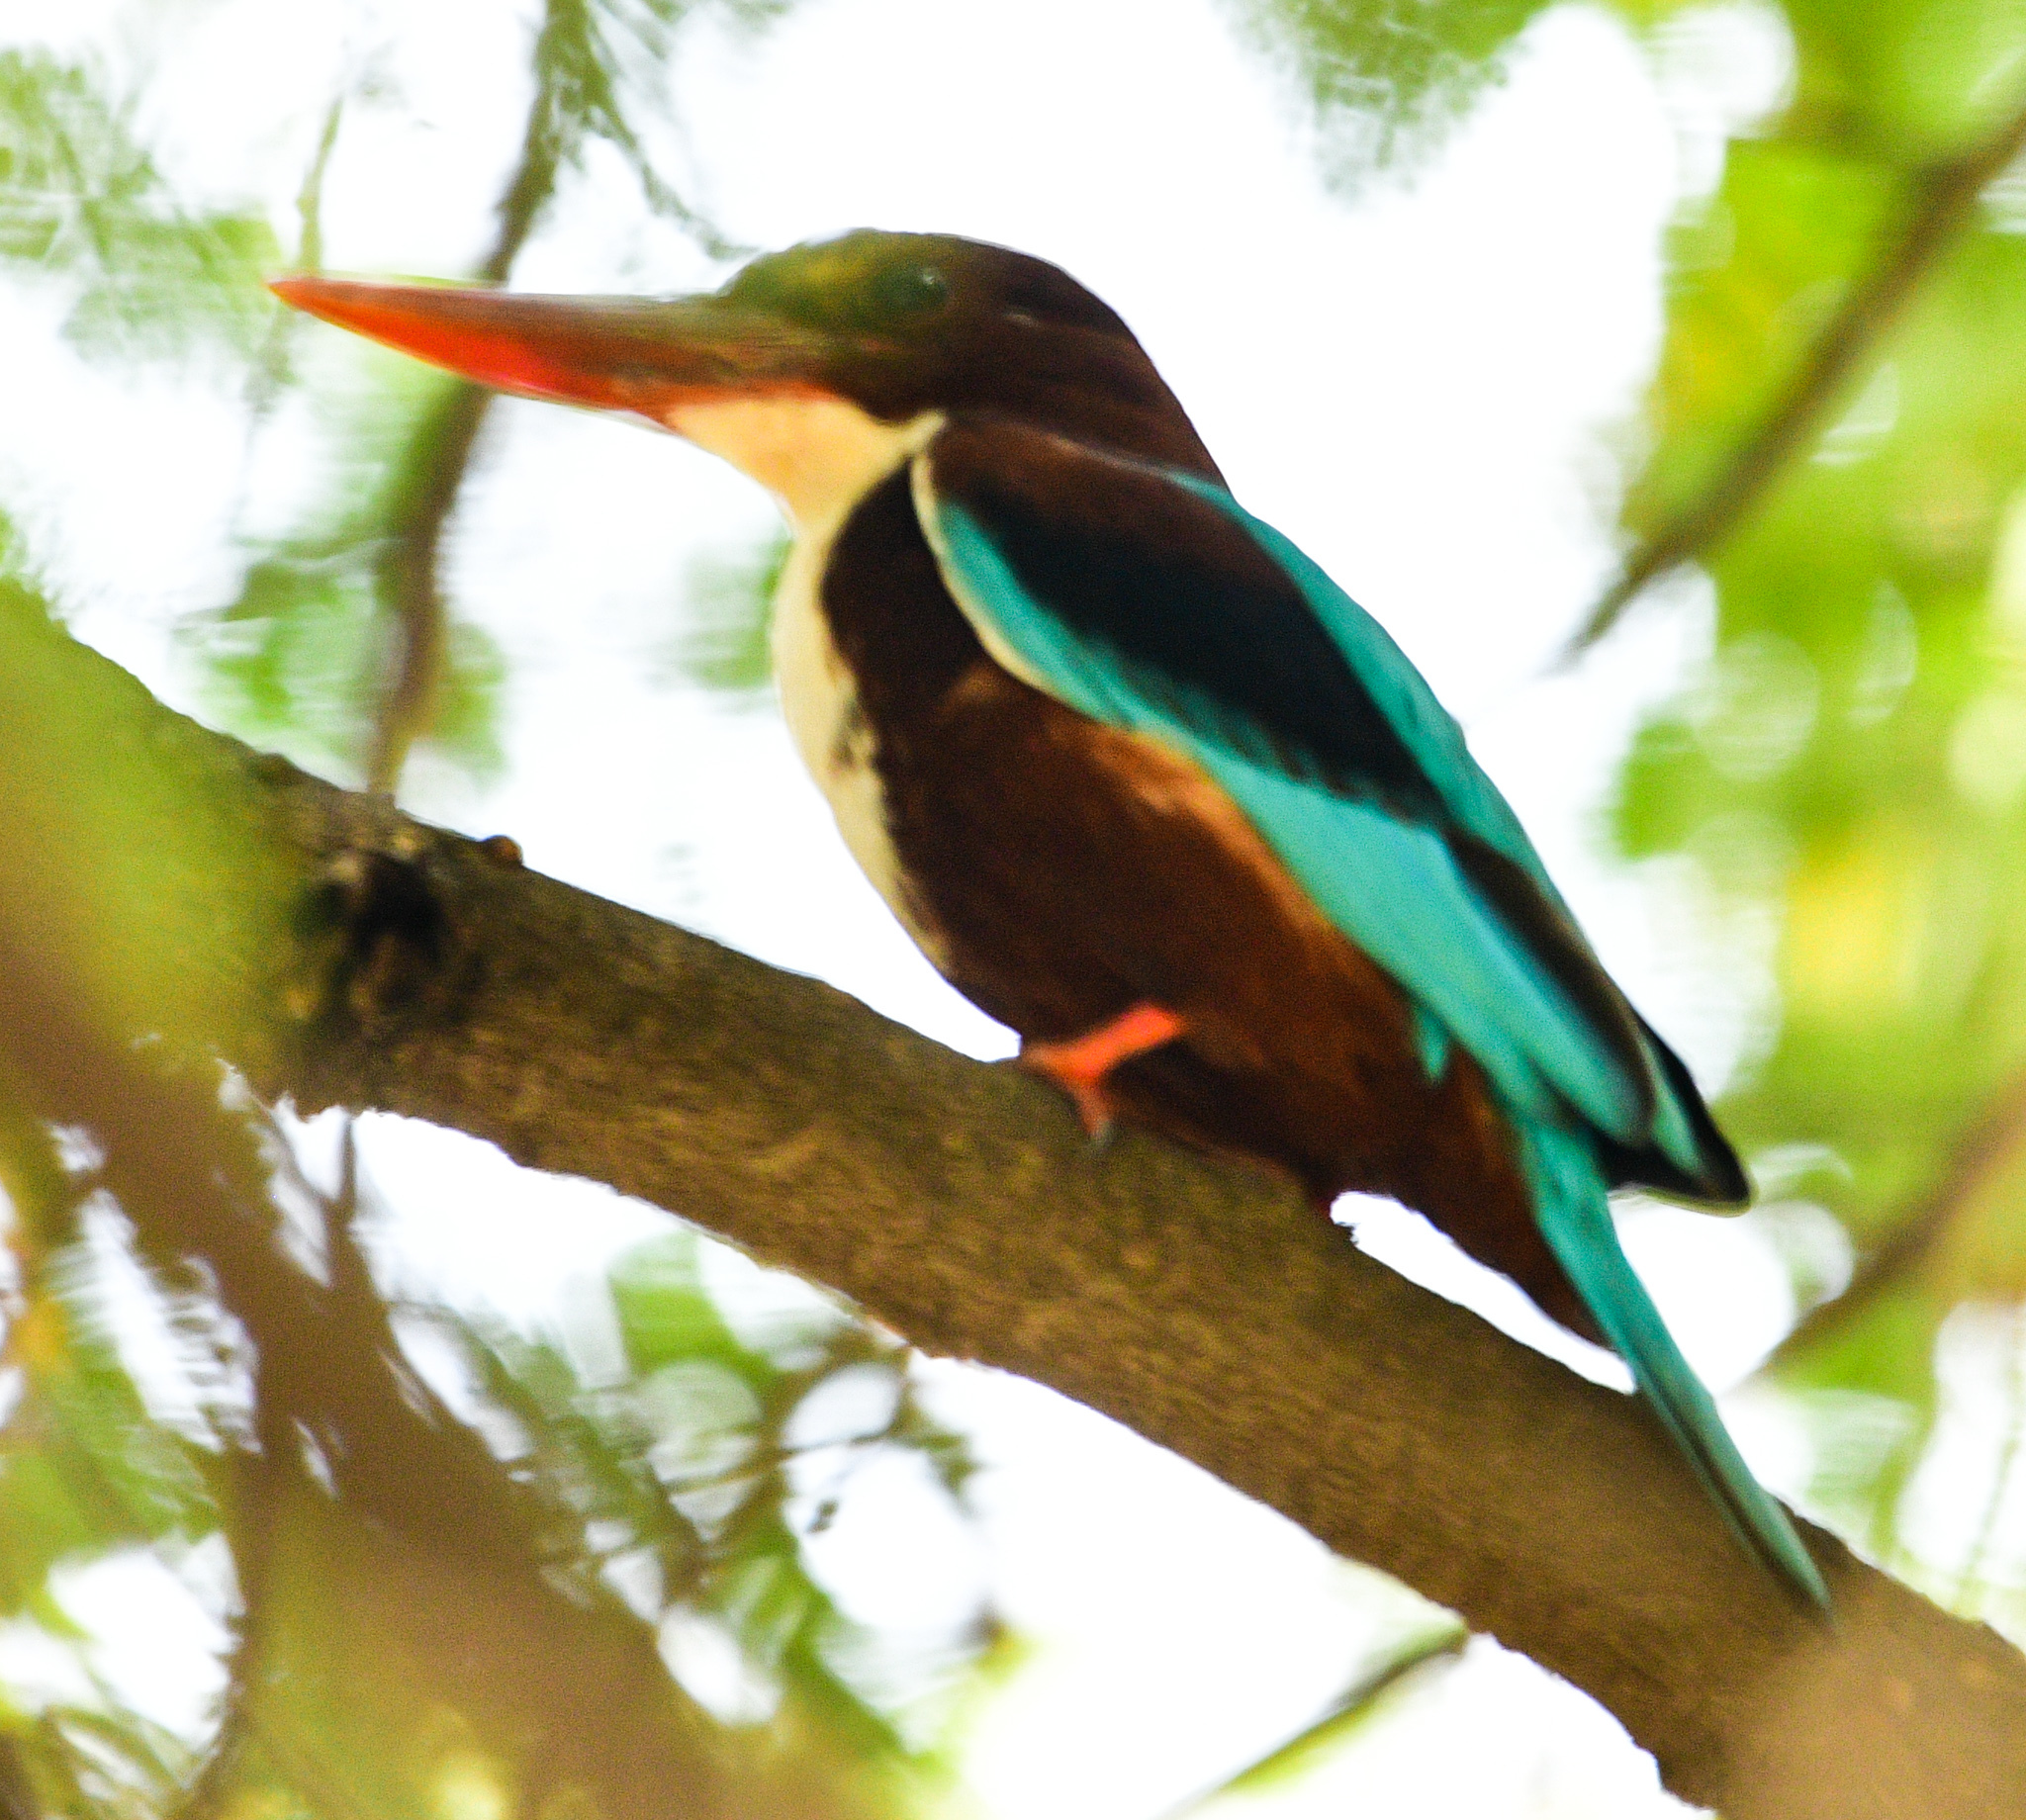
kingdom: Animalia
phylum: Chordata
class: Aves
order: Coraciiformes
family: Alcedinidae
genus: Halcyon
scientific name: Halcyon smyrnensis
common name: White-throated kingfisher
